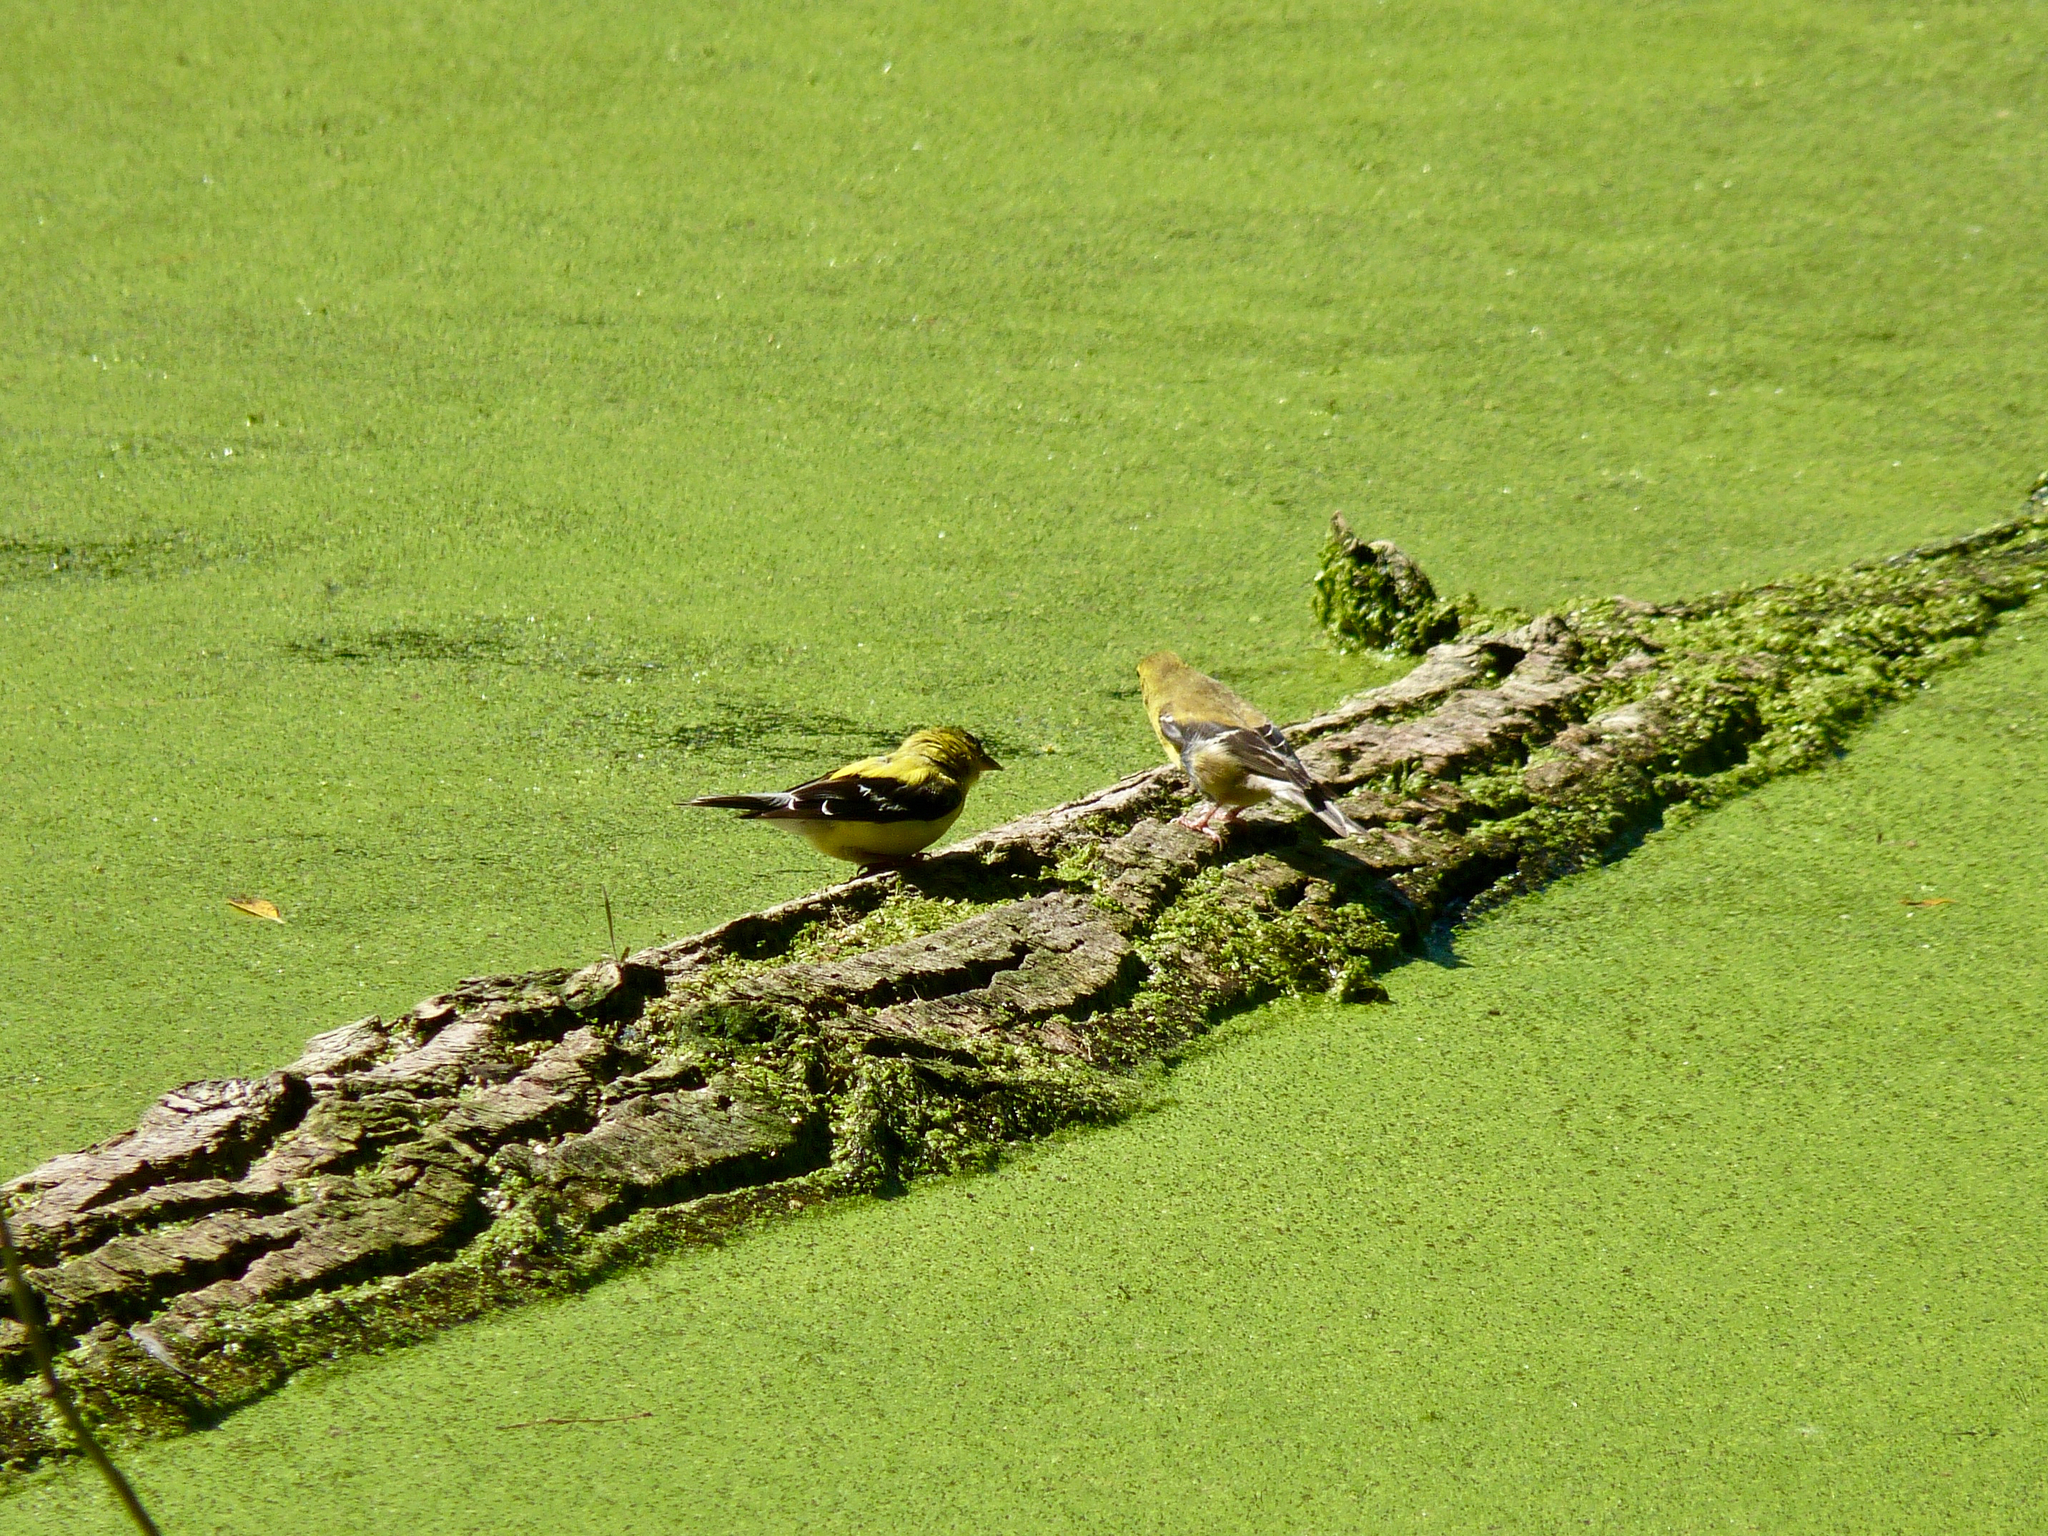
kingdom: Animalia
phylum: Chordata
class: Aves
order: Passeriformes
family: Fringillidae
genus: Spinus
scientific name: Spinus tristis
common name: American goldfinch
